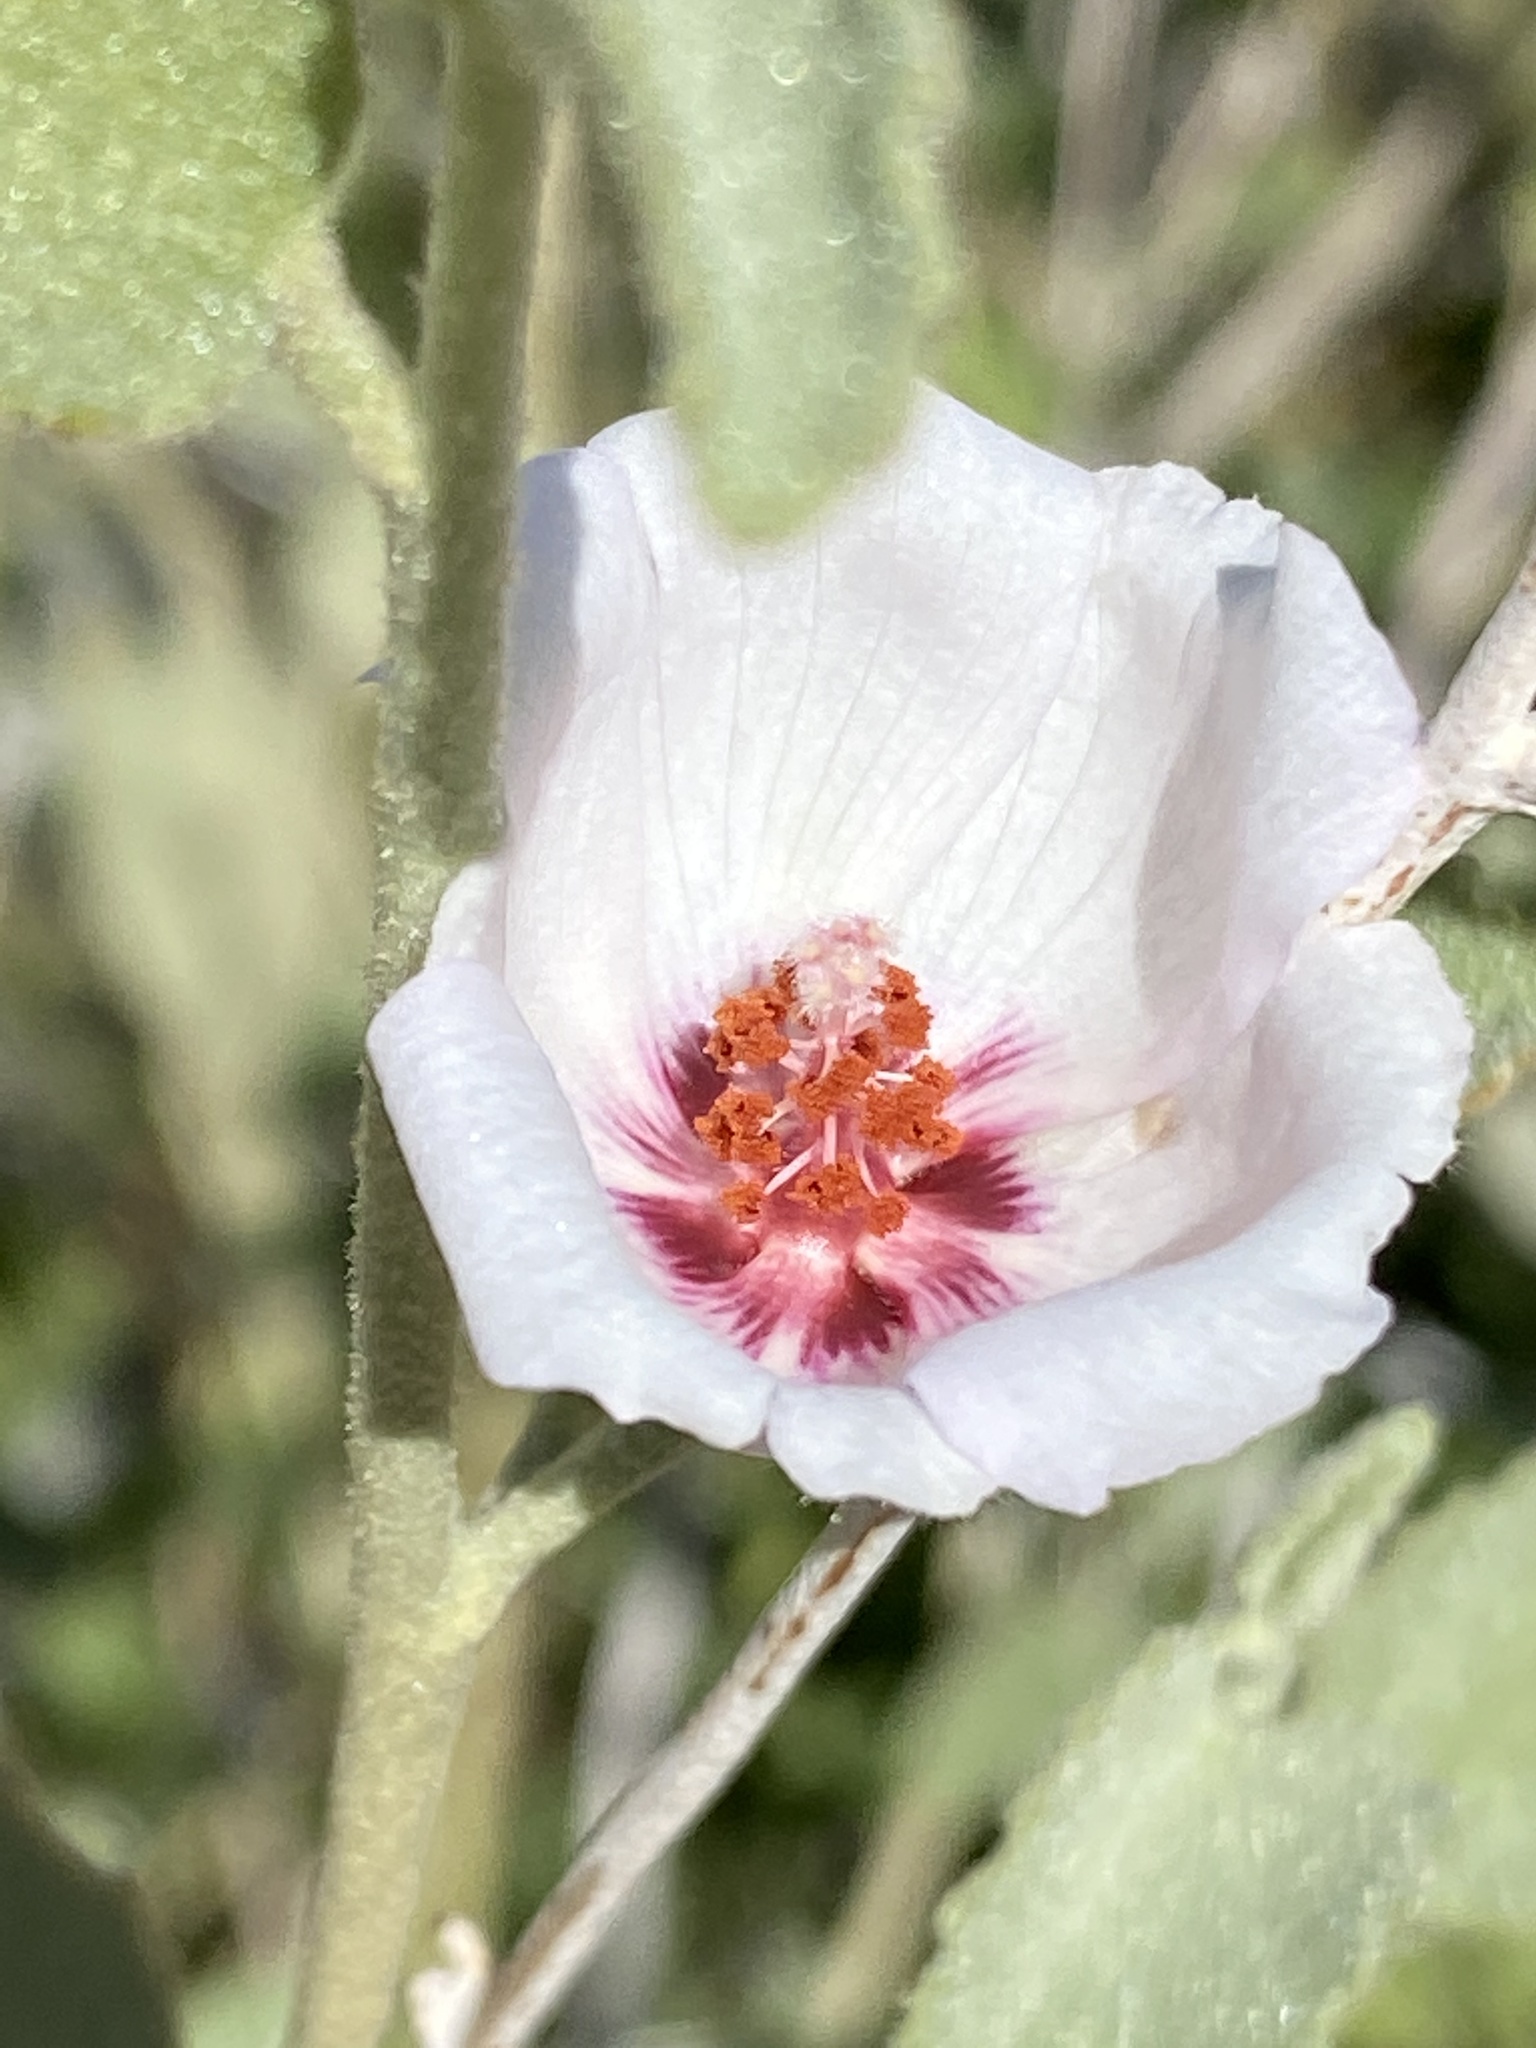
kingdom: Plantae
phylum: Tracheophyta
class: Magnoliopsida
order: Malvales
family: Malvaceae
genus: Hibiscus
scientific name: Hibiscus denudatus
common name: Paleface
